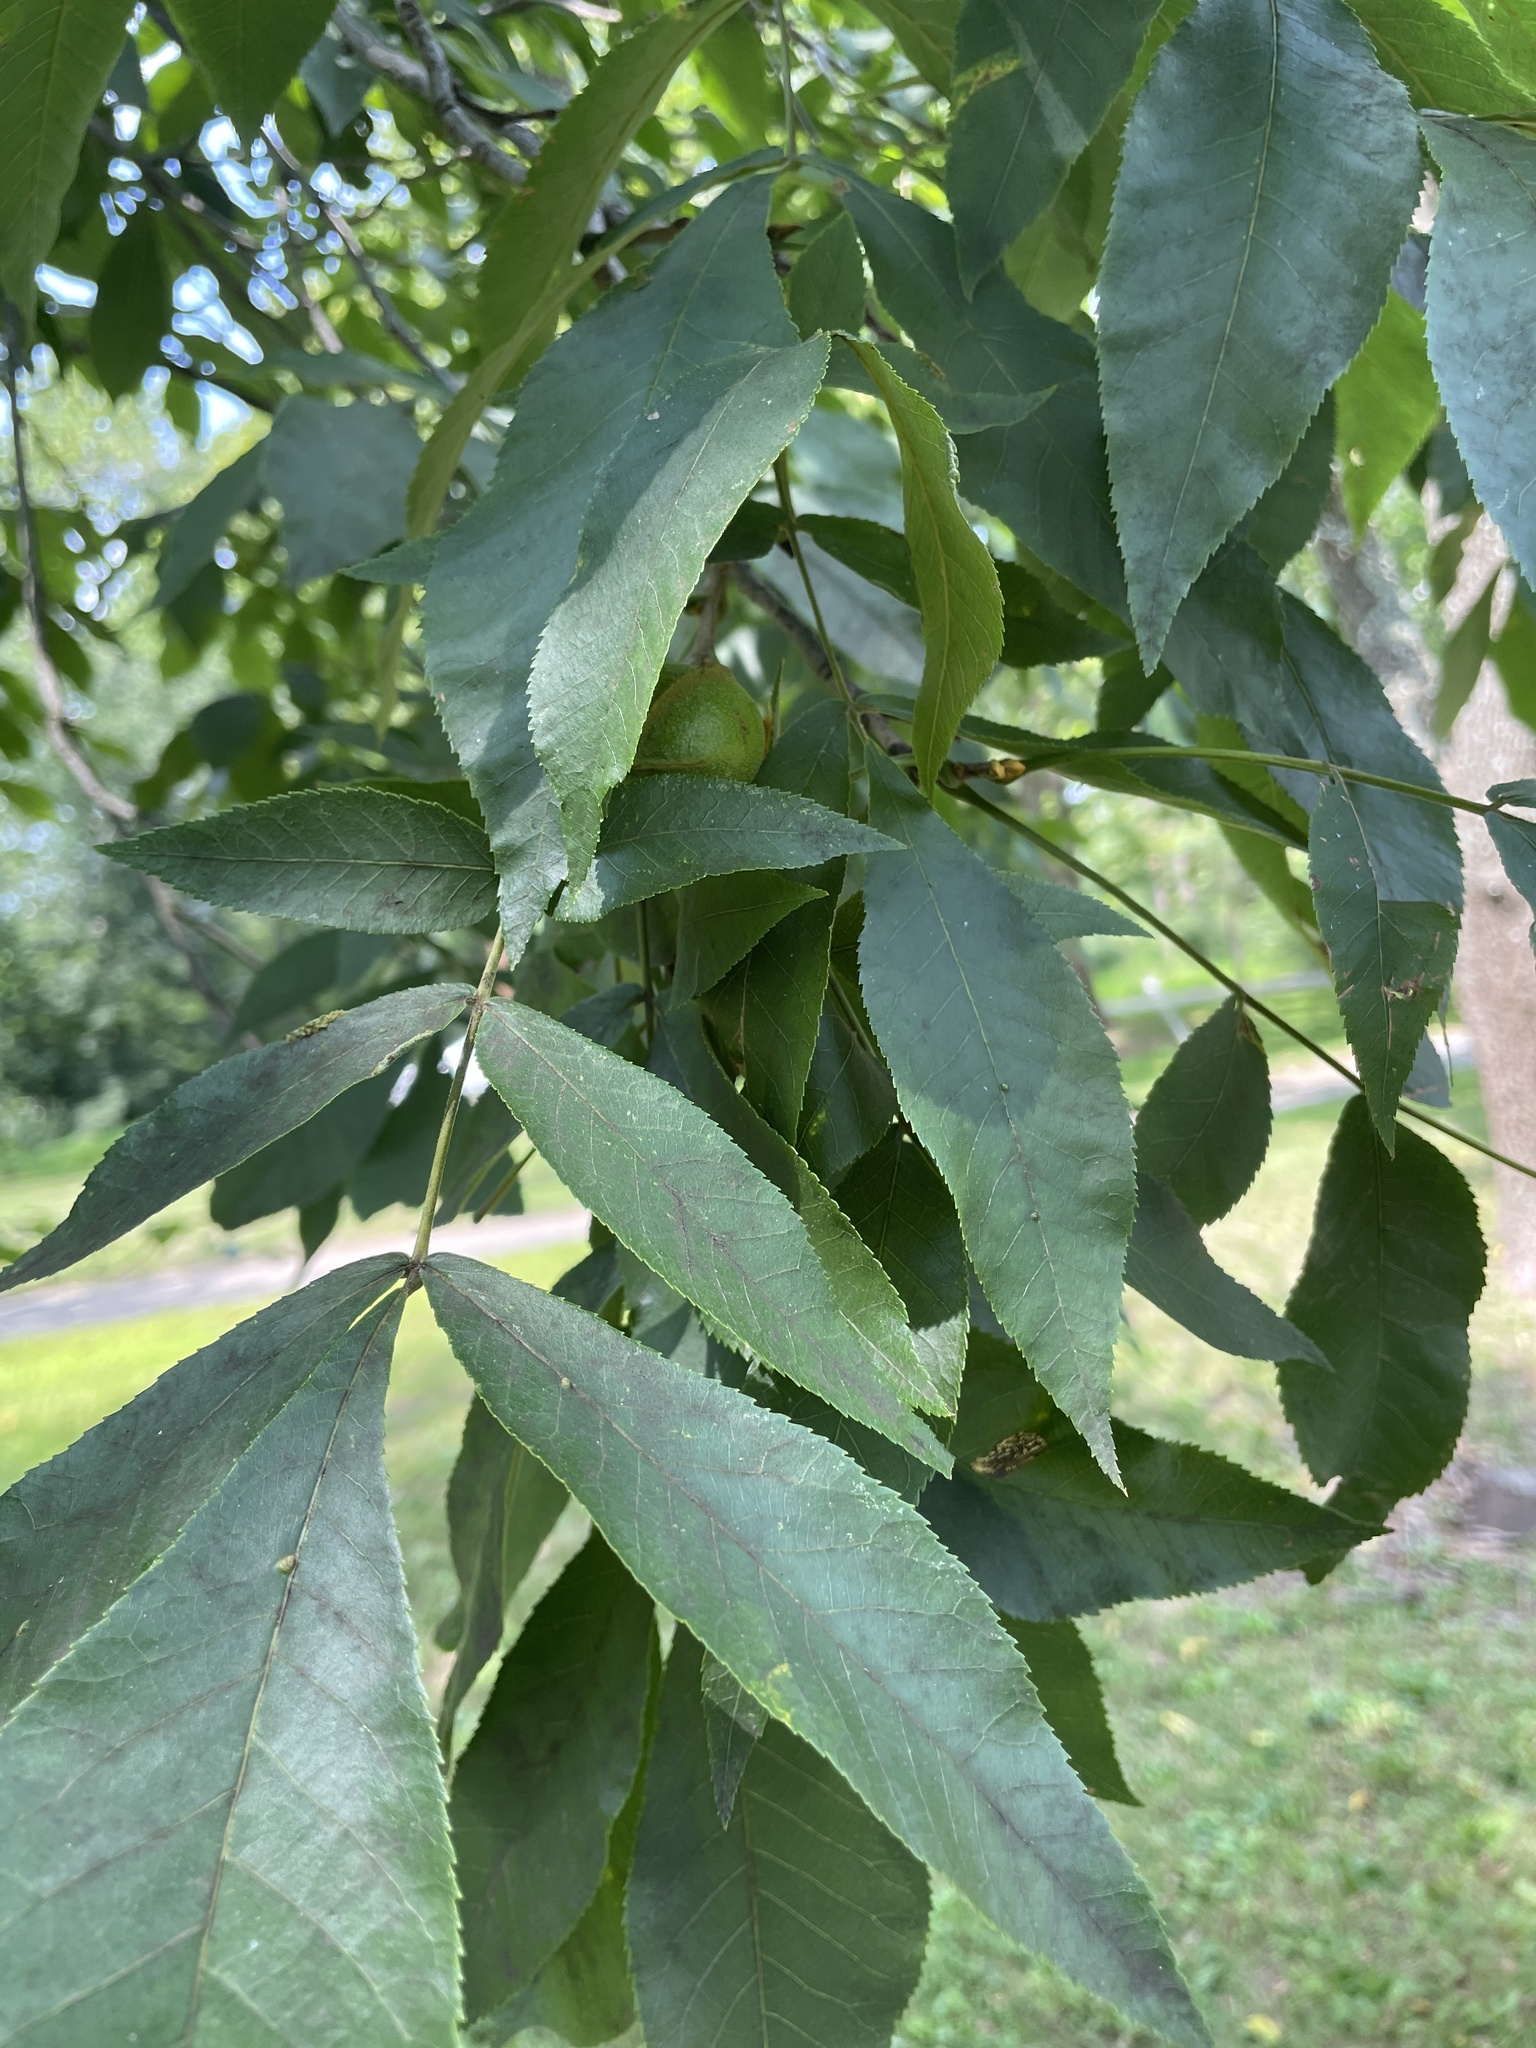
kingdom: Plantae
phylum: Tracheophyta
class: Magnoliopsida
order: Fagales
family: Juglandaceae
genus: Carya
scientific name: Carya cordiformis
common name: Bitternut hickory
